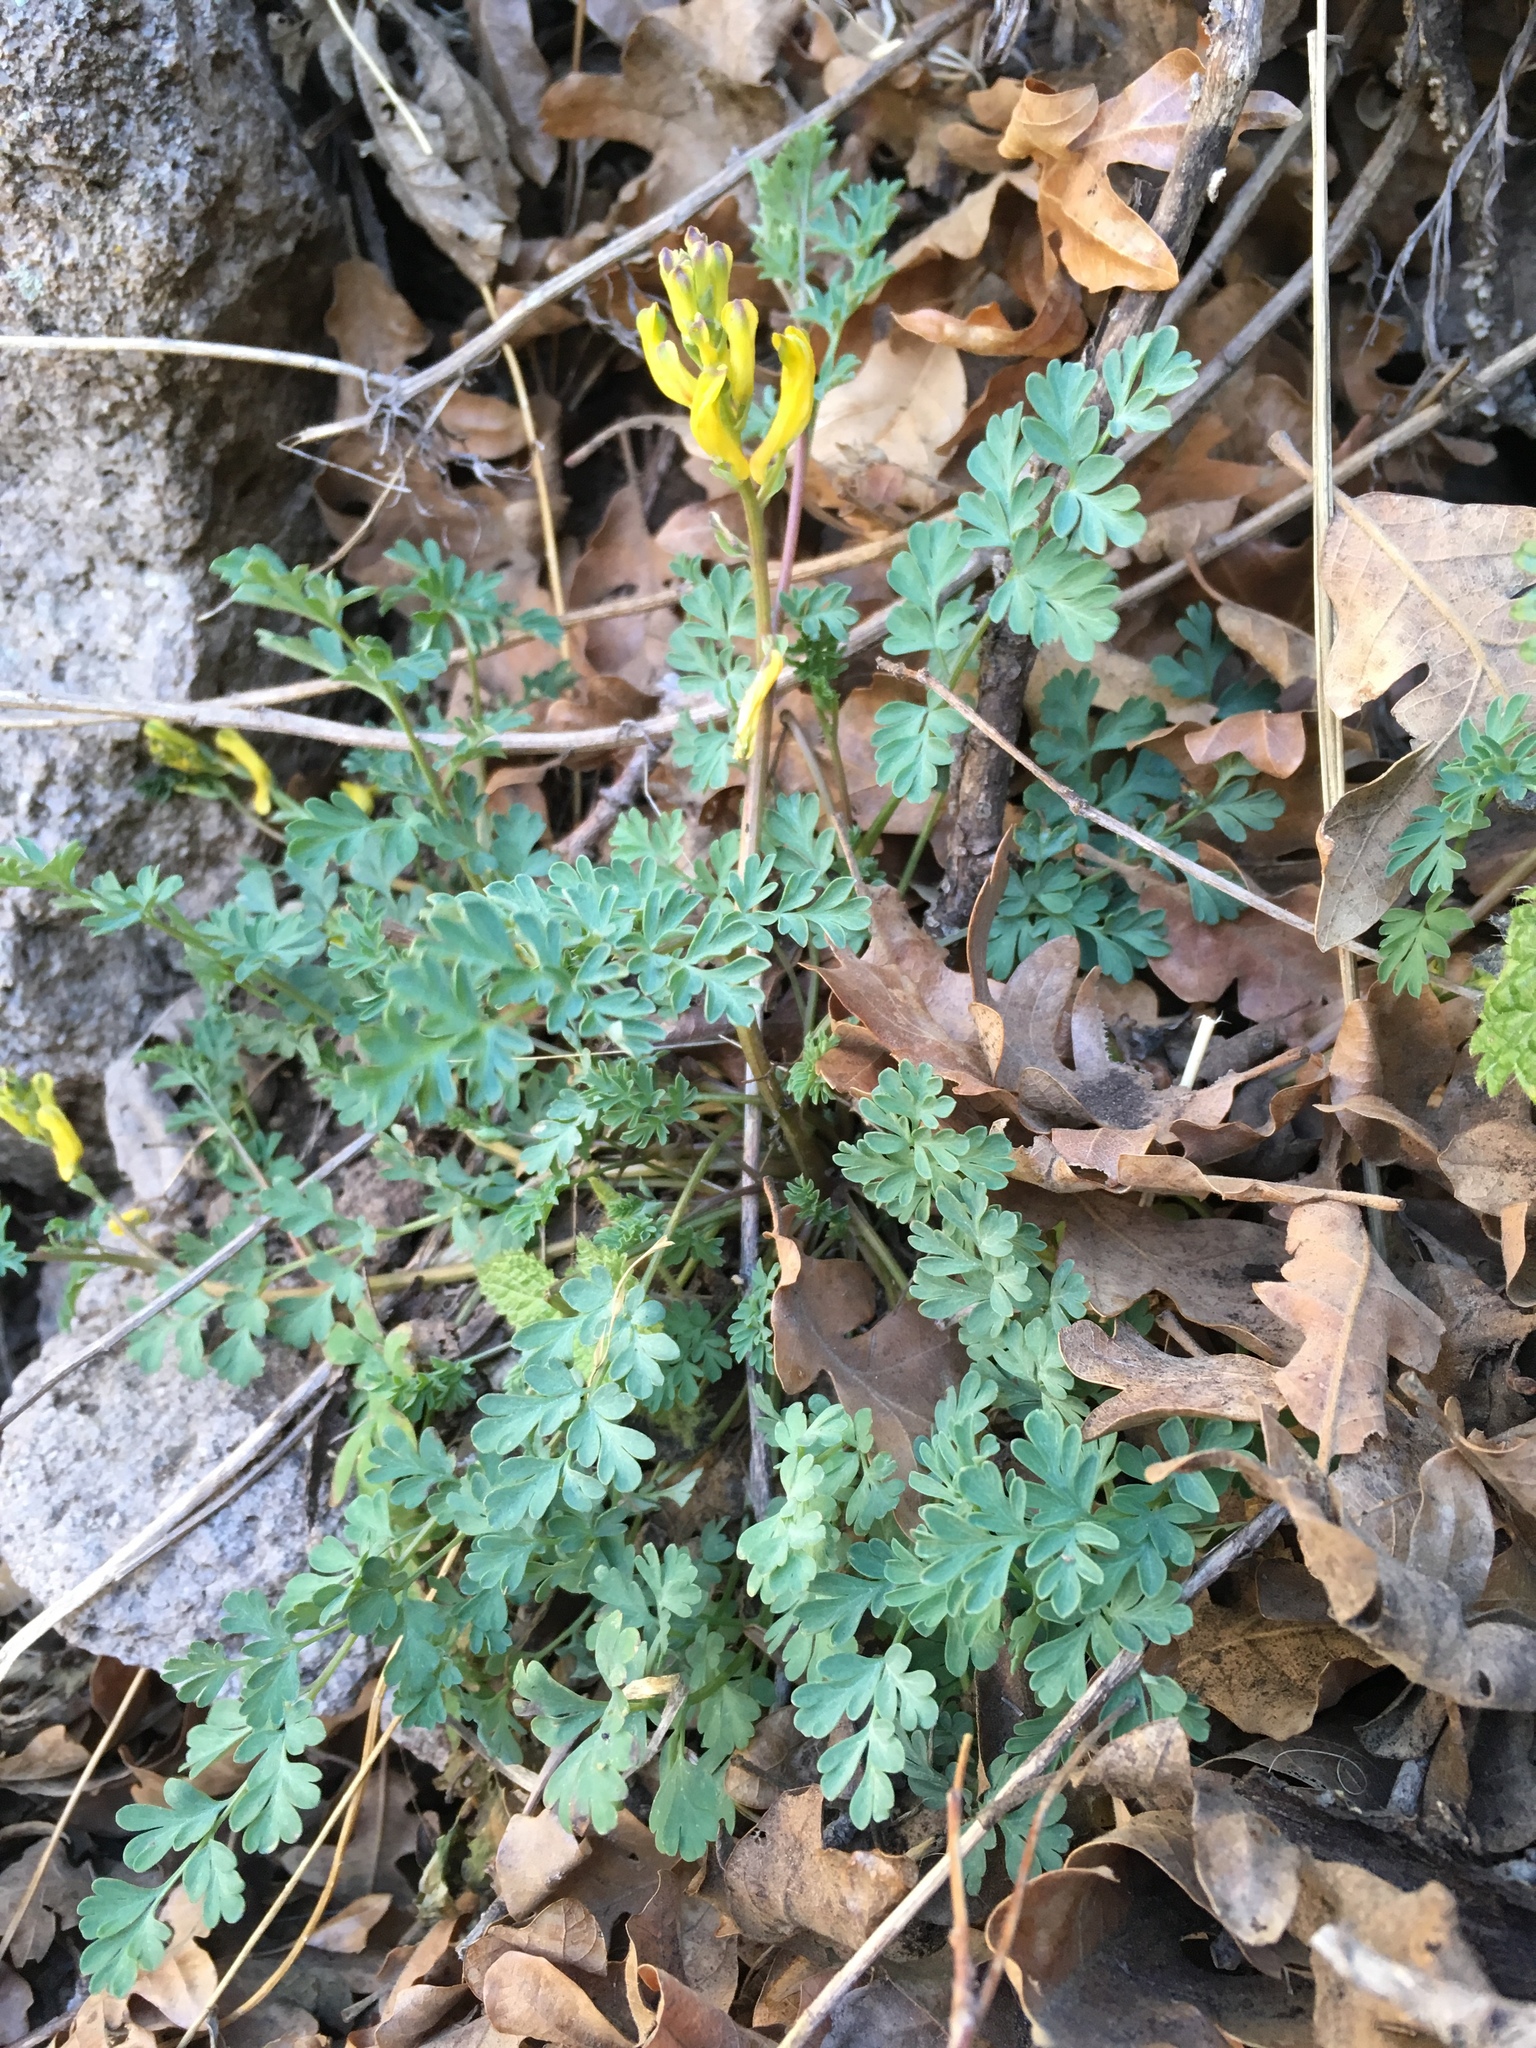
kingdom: Plantae
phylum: Tracheophyta
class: Magnoliopsida
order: Ranunculales
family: Papaveraceae
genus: Corydalis
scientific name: Corydalis aurea
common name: Golden corydalis
